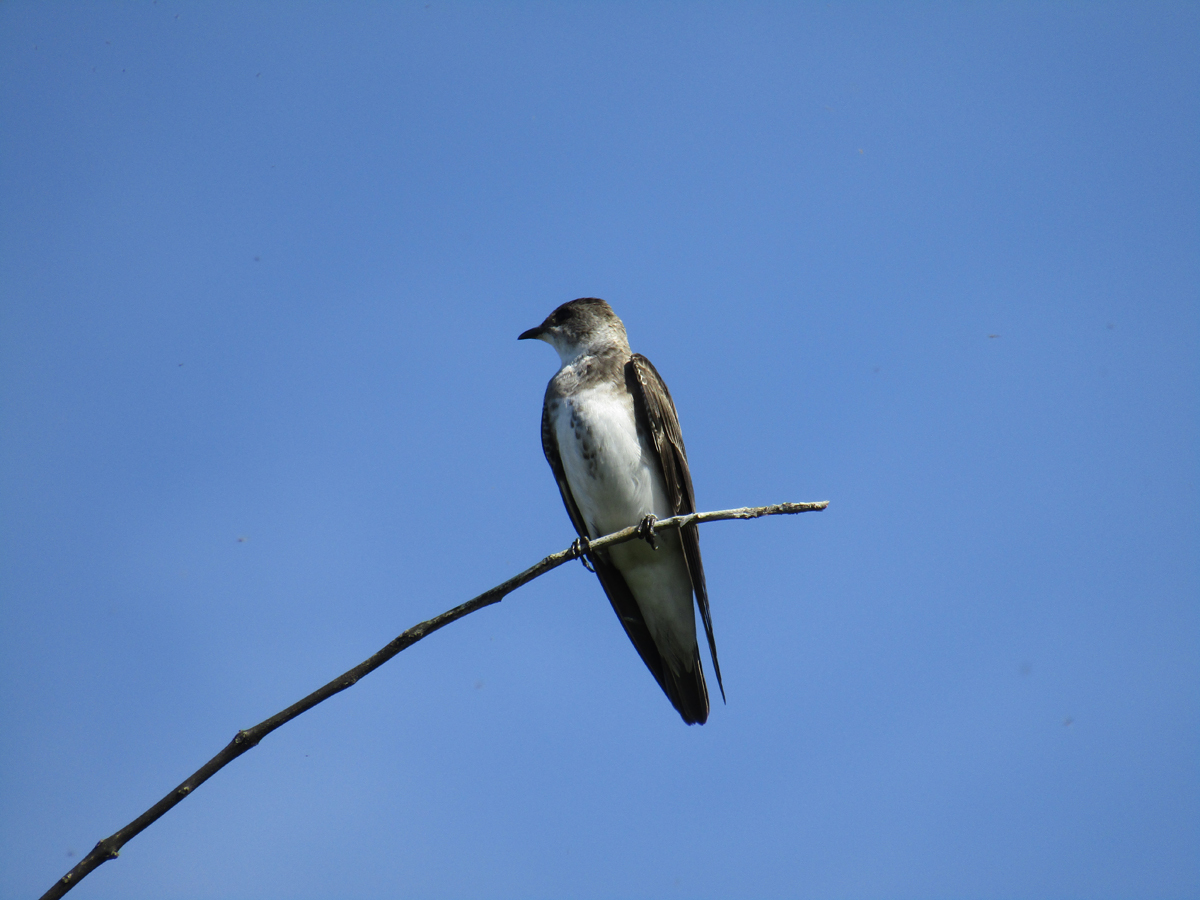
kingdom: Animalia
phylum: Chordata
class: Aves
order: Passeriformes
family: Hirundinidae
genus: Progne
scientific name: Progne tapera
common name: Brown-chested martin
